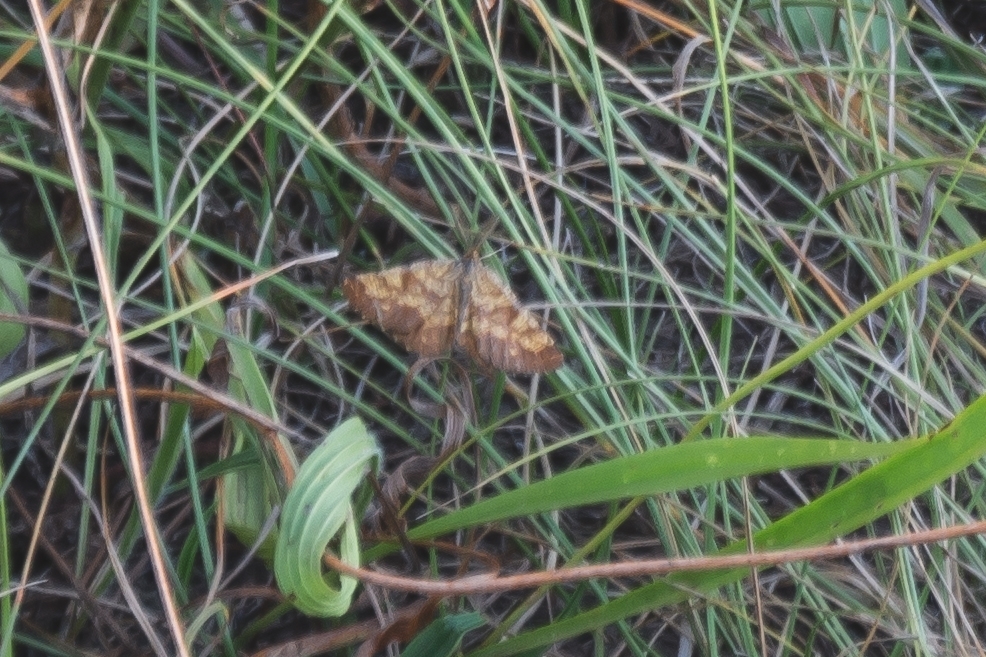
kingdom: Animalia
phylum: Arthropoda
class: Insecta
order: Lepidoptera
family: Geometridae
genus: Ematurga
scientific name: Ematurga atomaria
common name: Common heath
